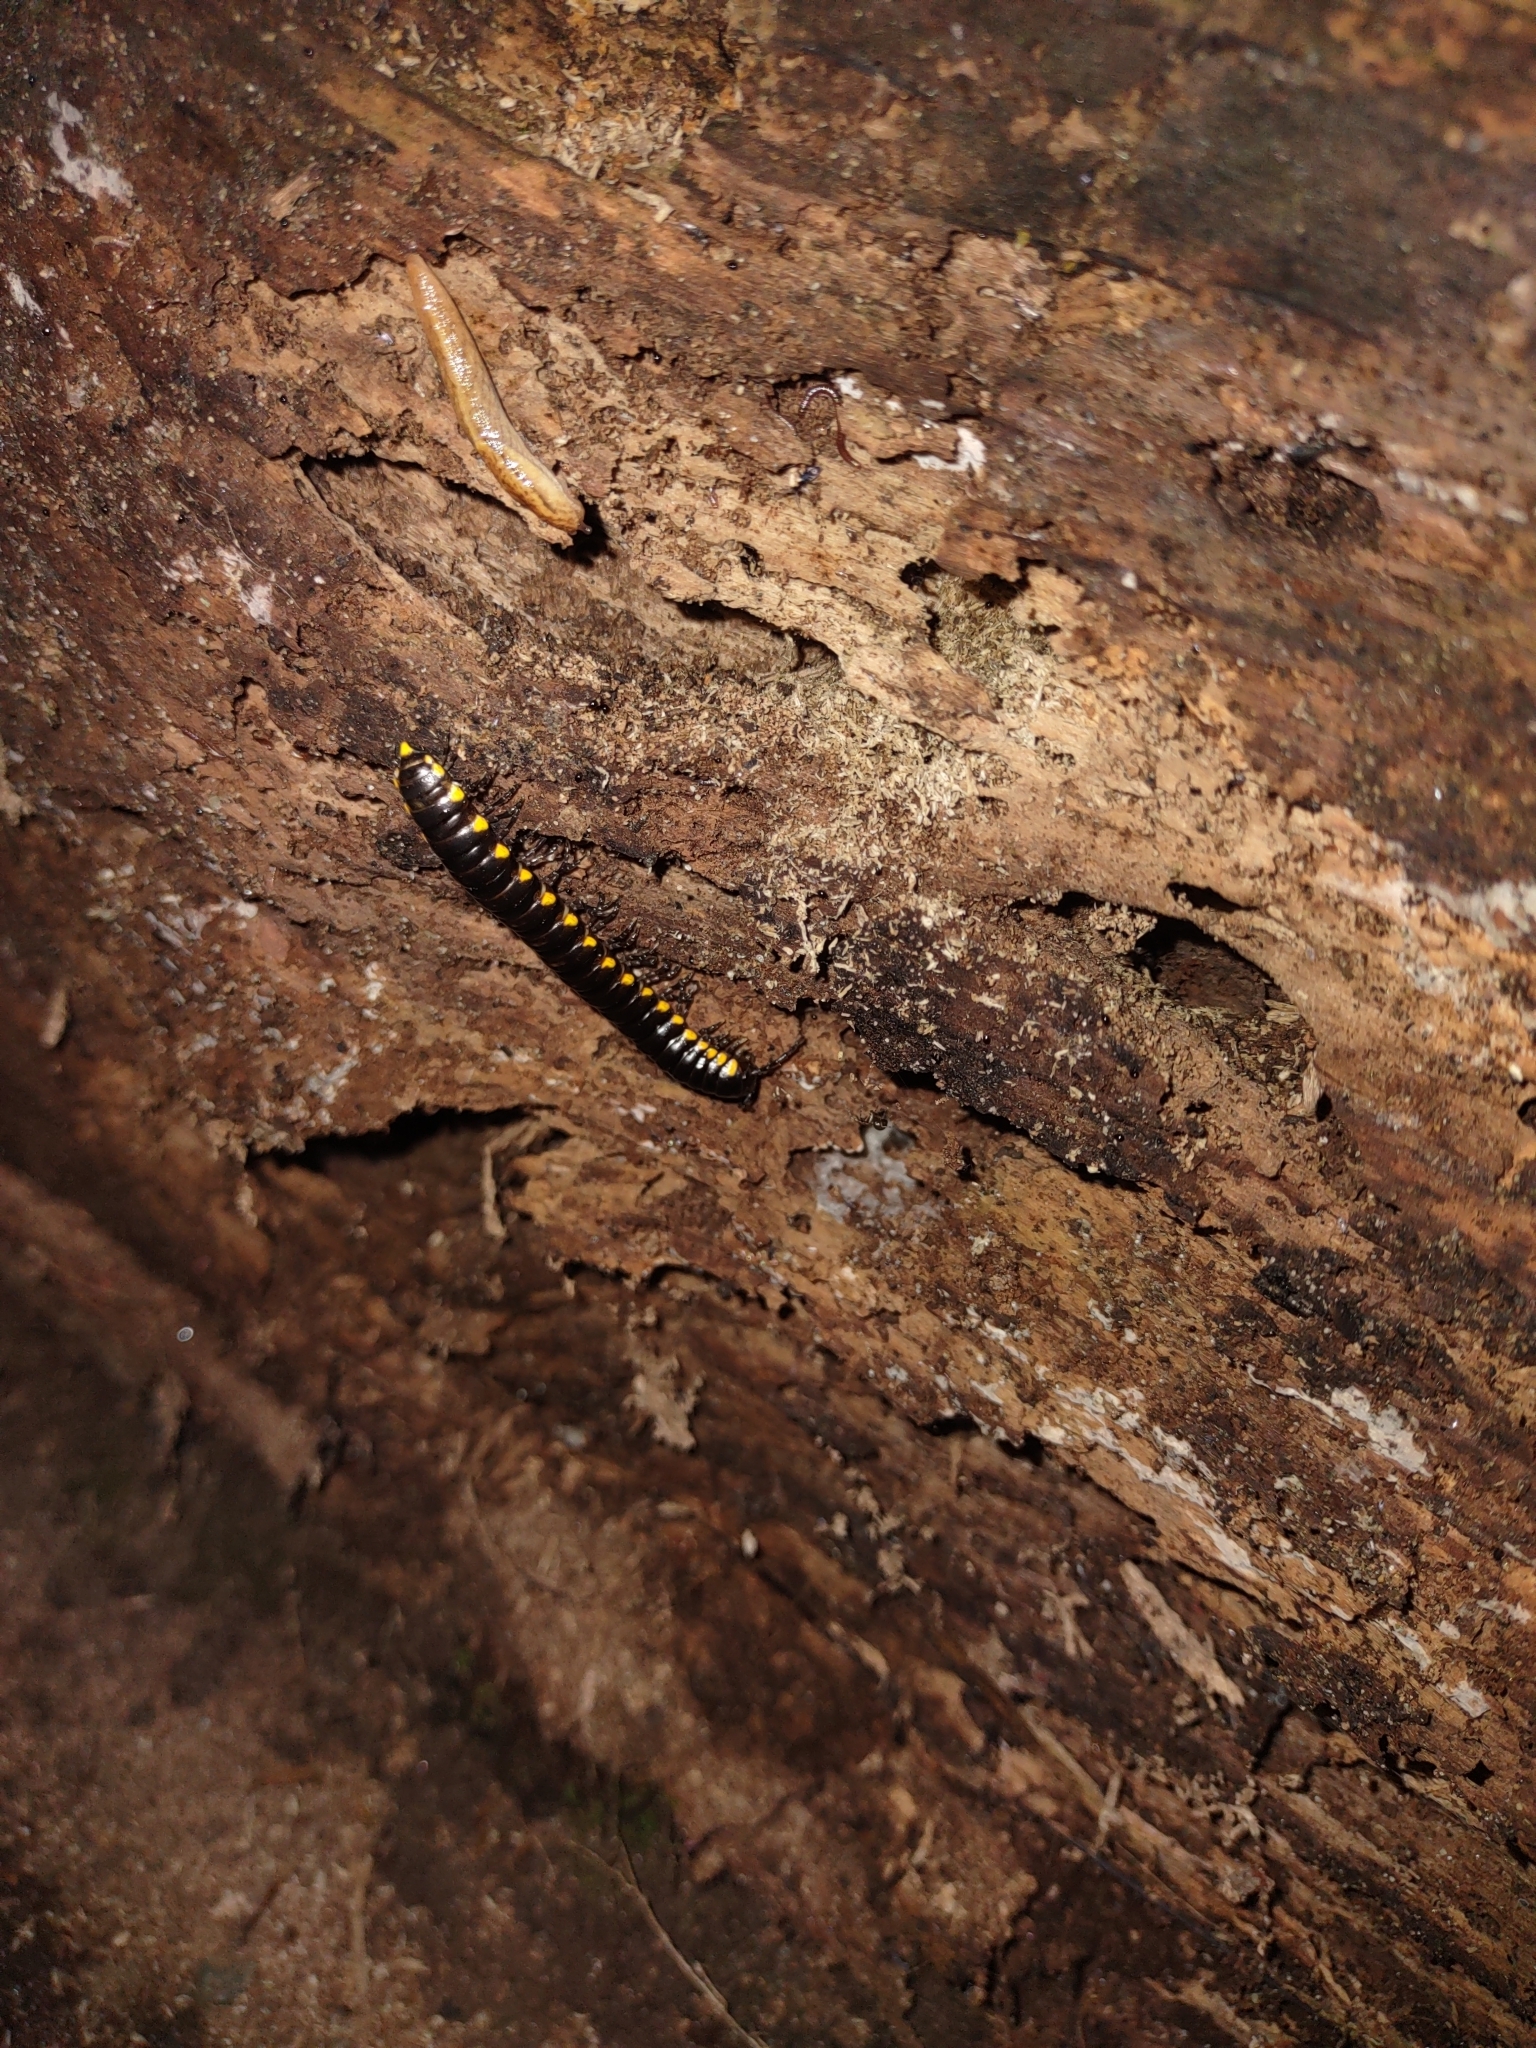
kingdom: Animalia
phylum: Arthropoda
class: Diplopoda
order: Polydesmida
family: Xystodesmidae
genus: Harpaphe
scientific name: Harpaphe haydeniana
